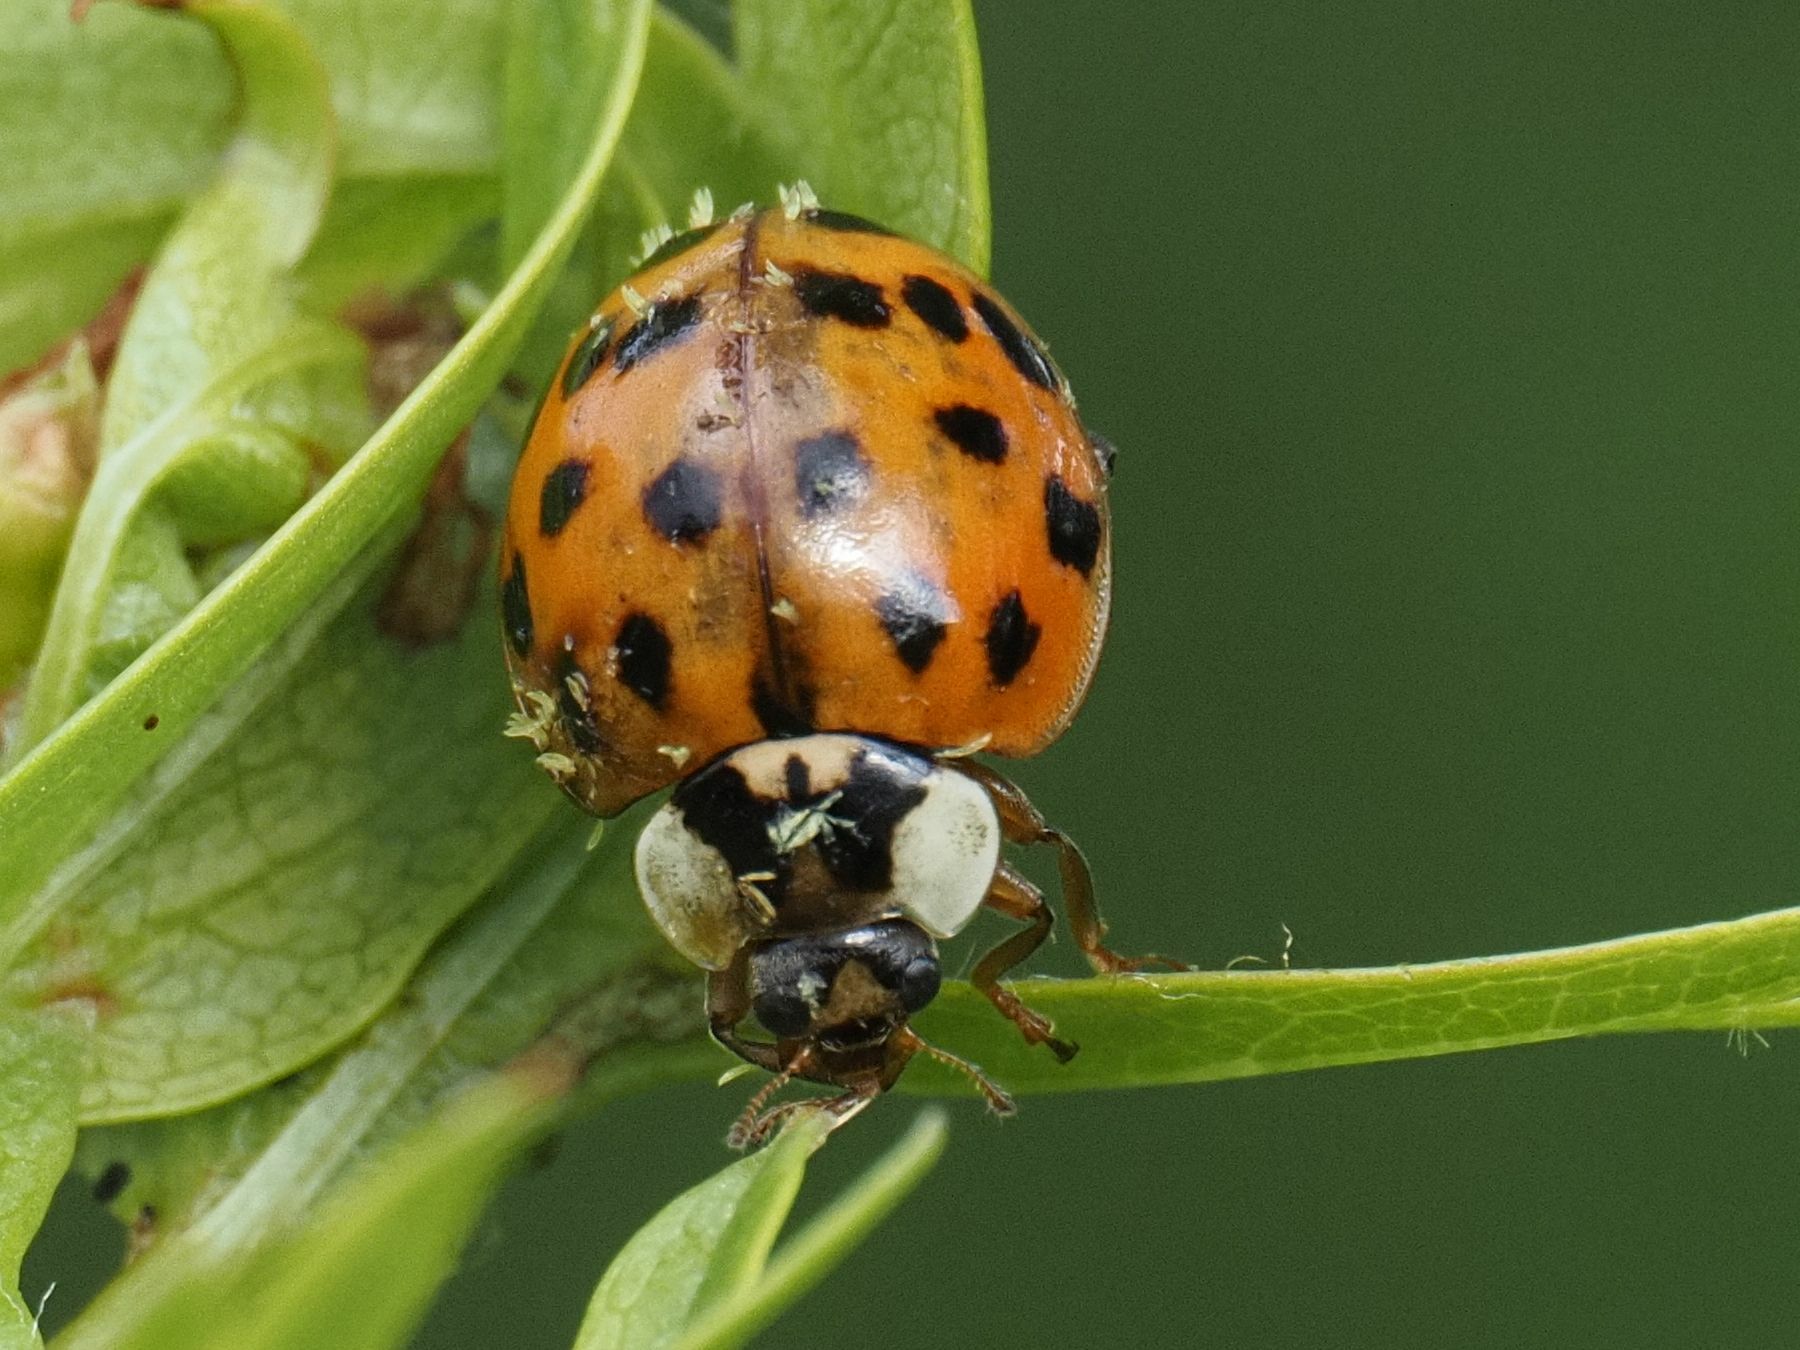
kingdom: Animalia
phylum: Arthropoda
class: Insecta
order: Coleoptera
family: Coccinellidae
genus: Harmonia
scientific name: Harmonia axyridis
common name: Harlequin ladybird
